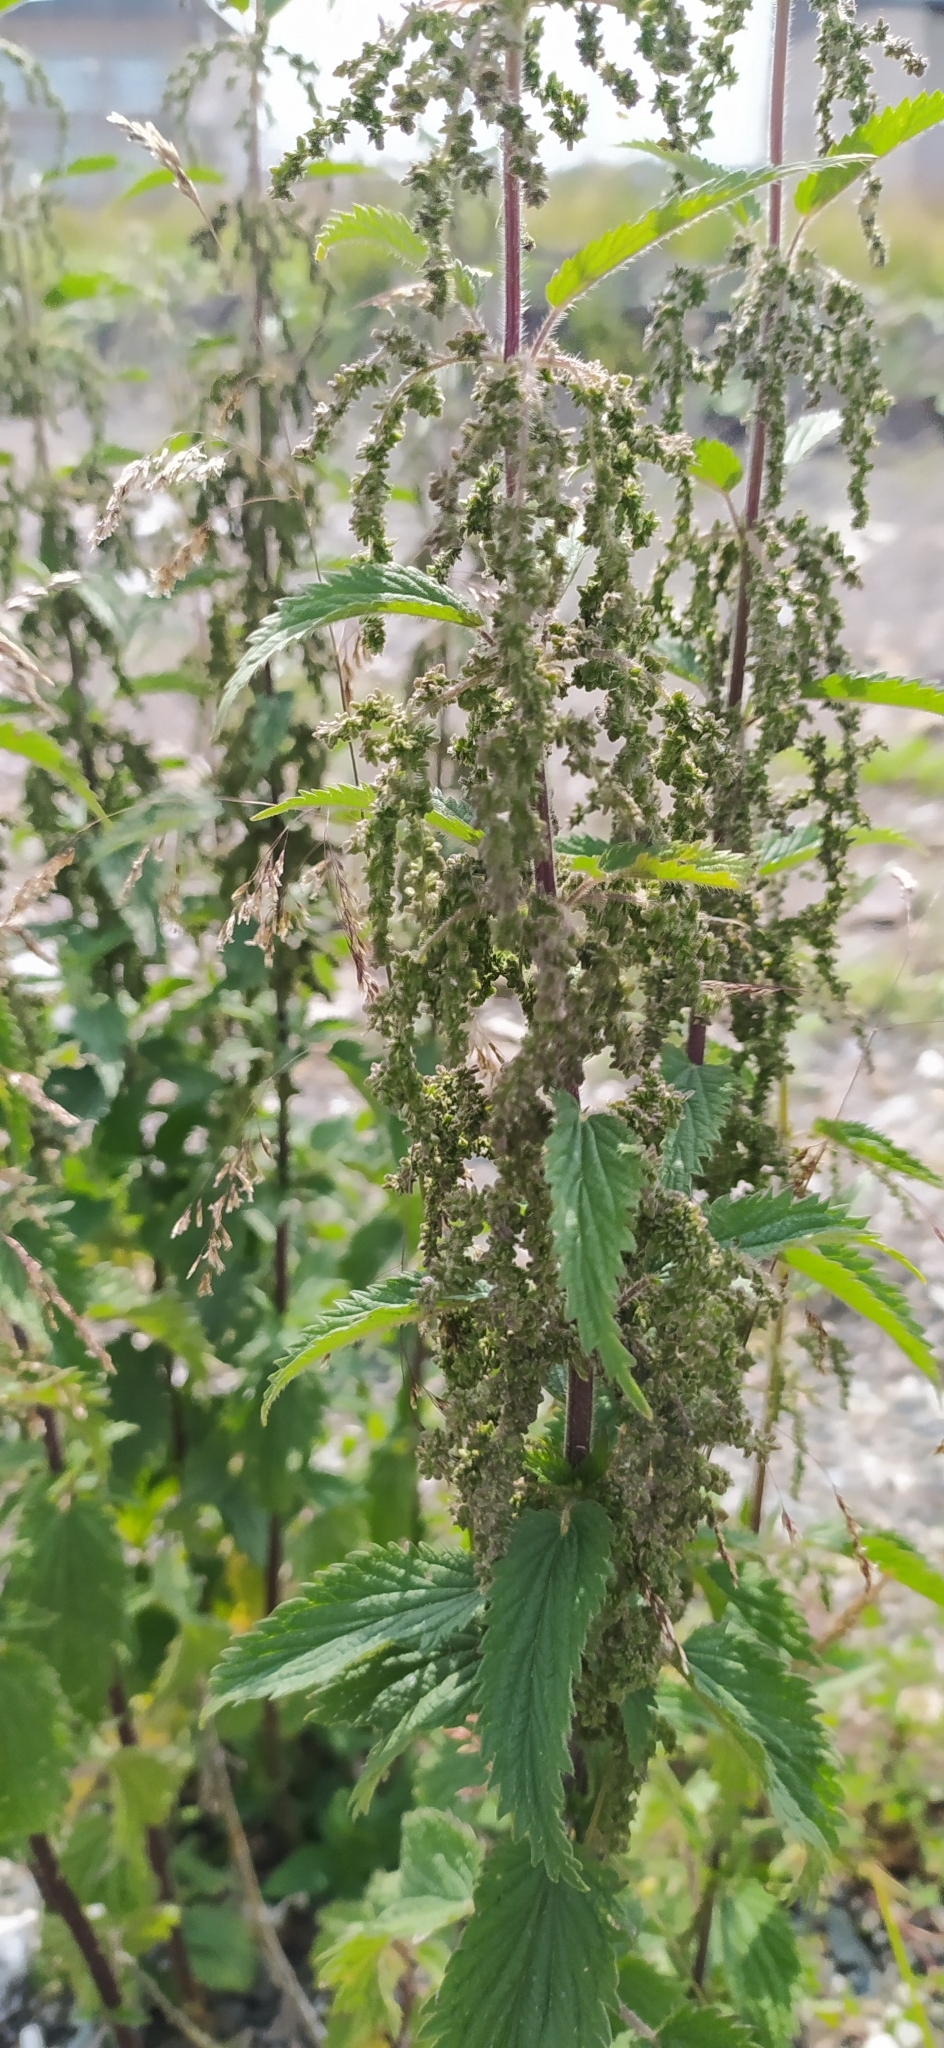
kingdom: Plantae
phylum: Tracheophyta
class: Magnoliopsida
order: Rosales
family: Urticaceae
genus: Urtica
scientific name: Urtica dioica
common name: Common nettle
